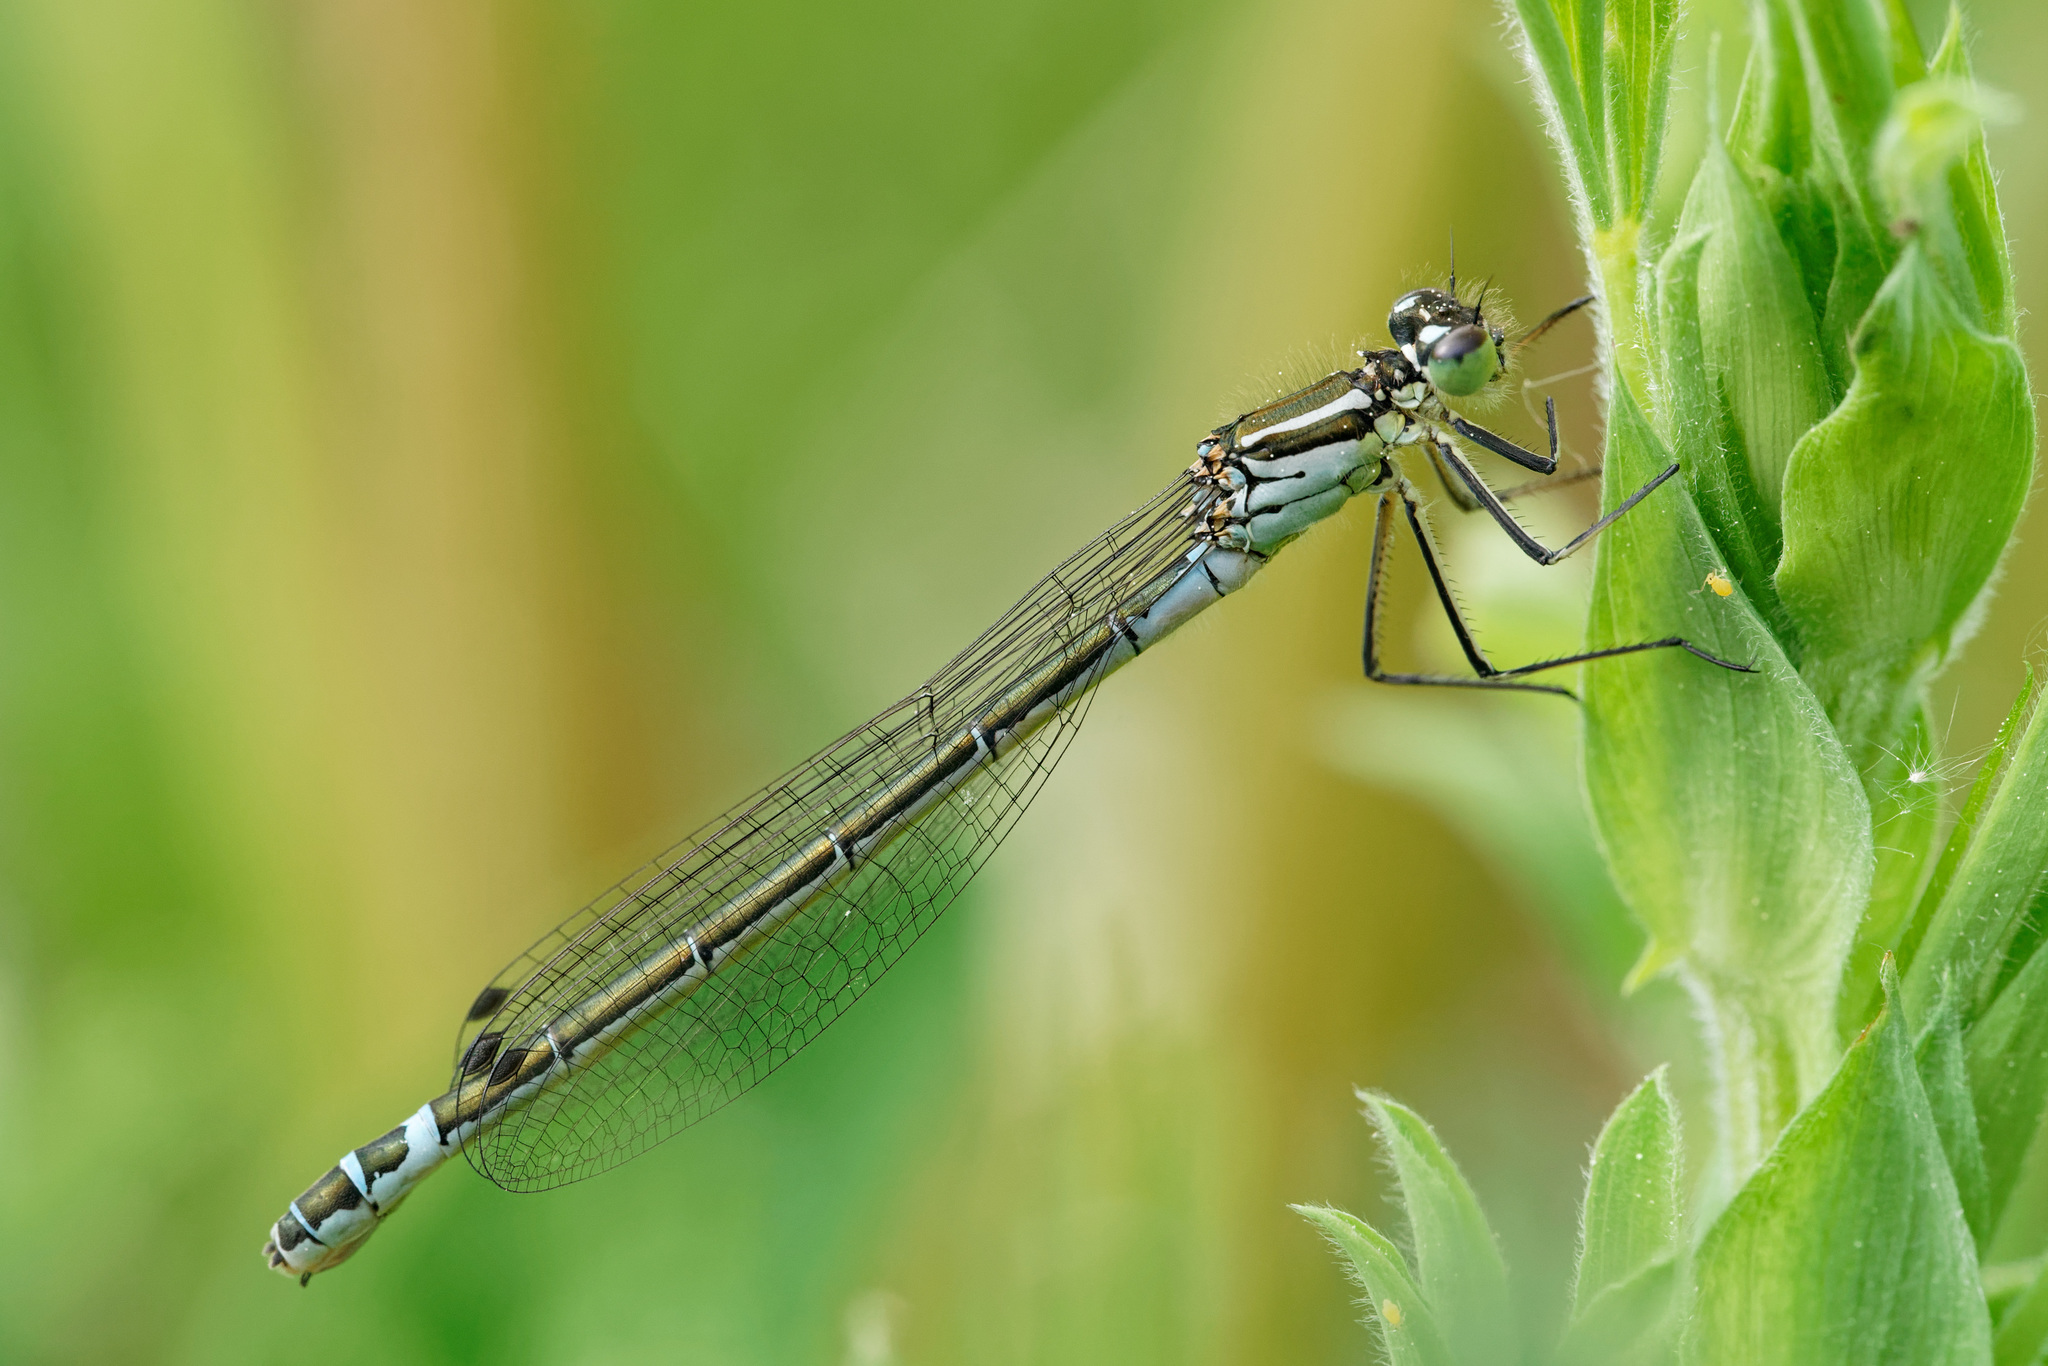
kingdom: Animalia
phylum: Arthropoda
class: Insecta
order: Odonata
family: Coenagrionidae
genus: Coenagrion
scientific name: Coenagrion lunulatum
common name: Irish damselfly
